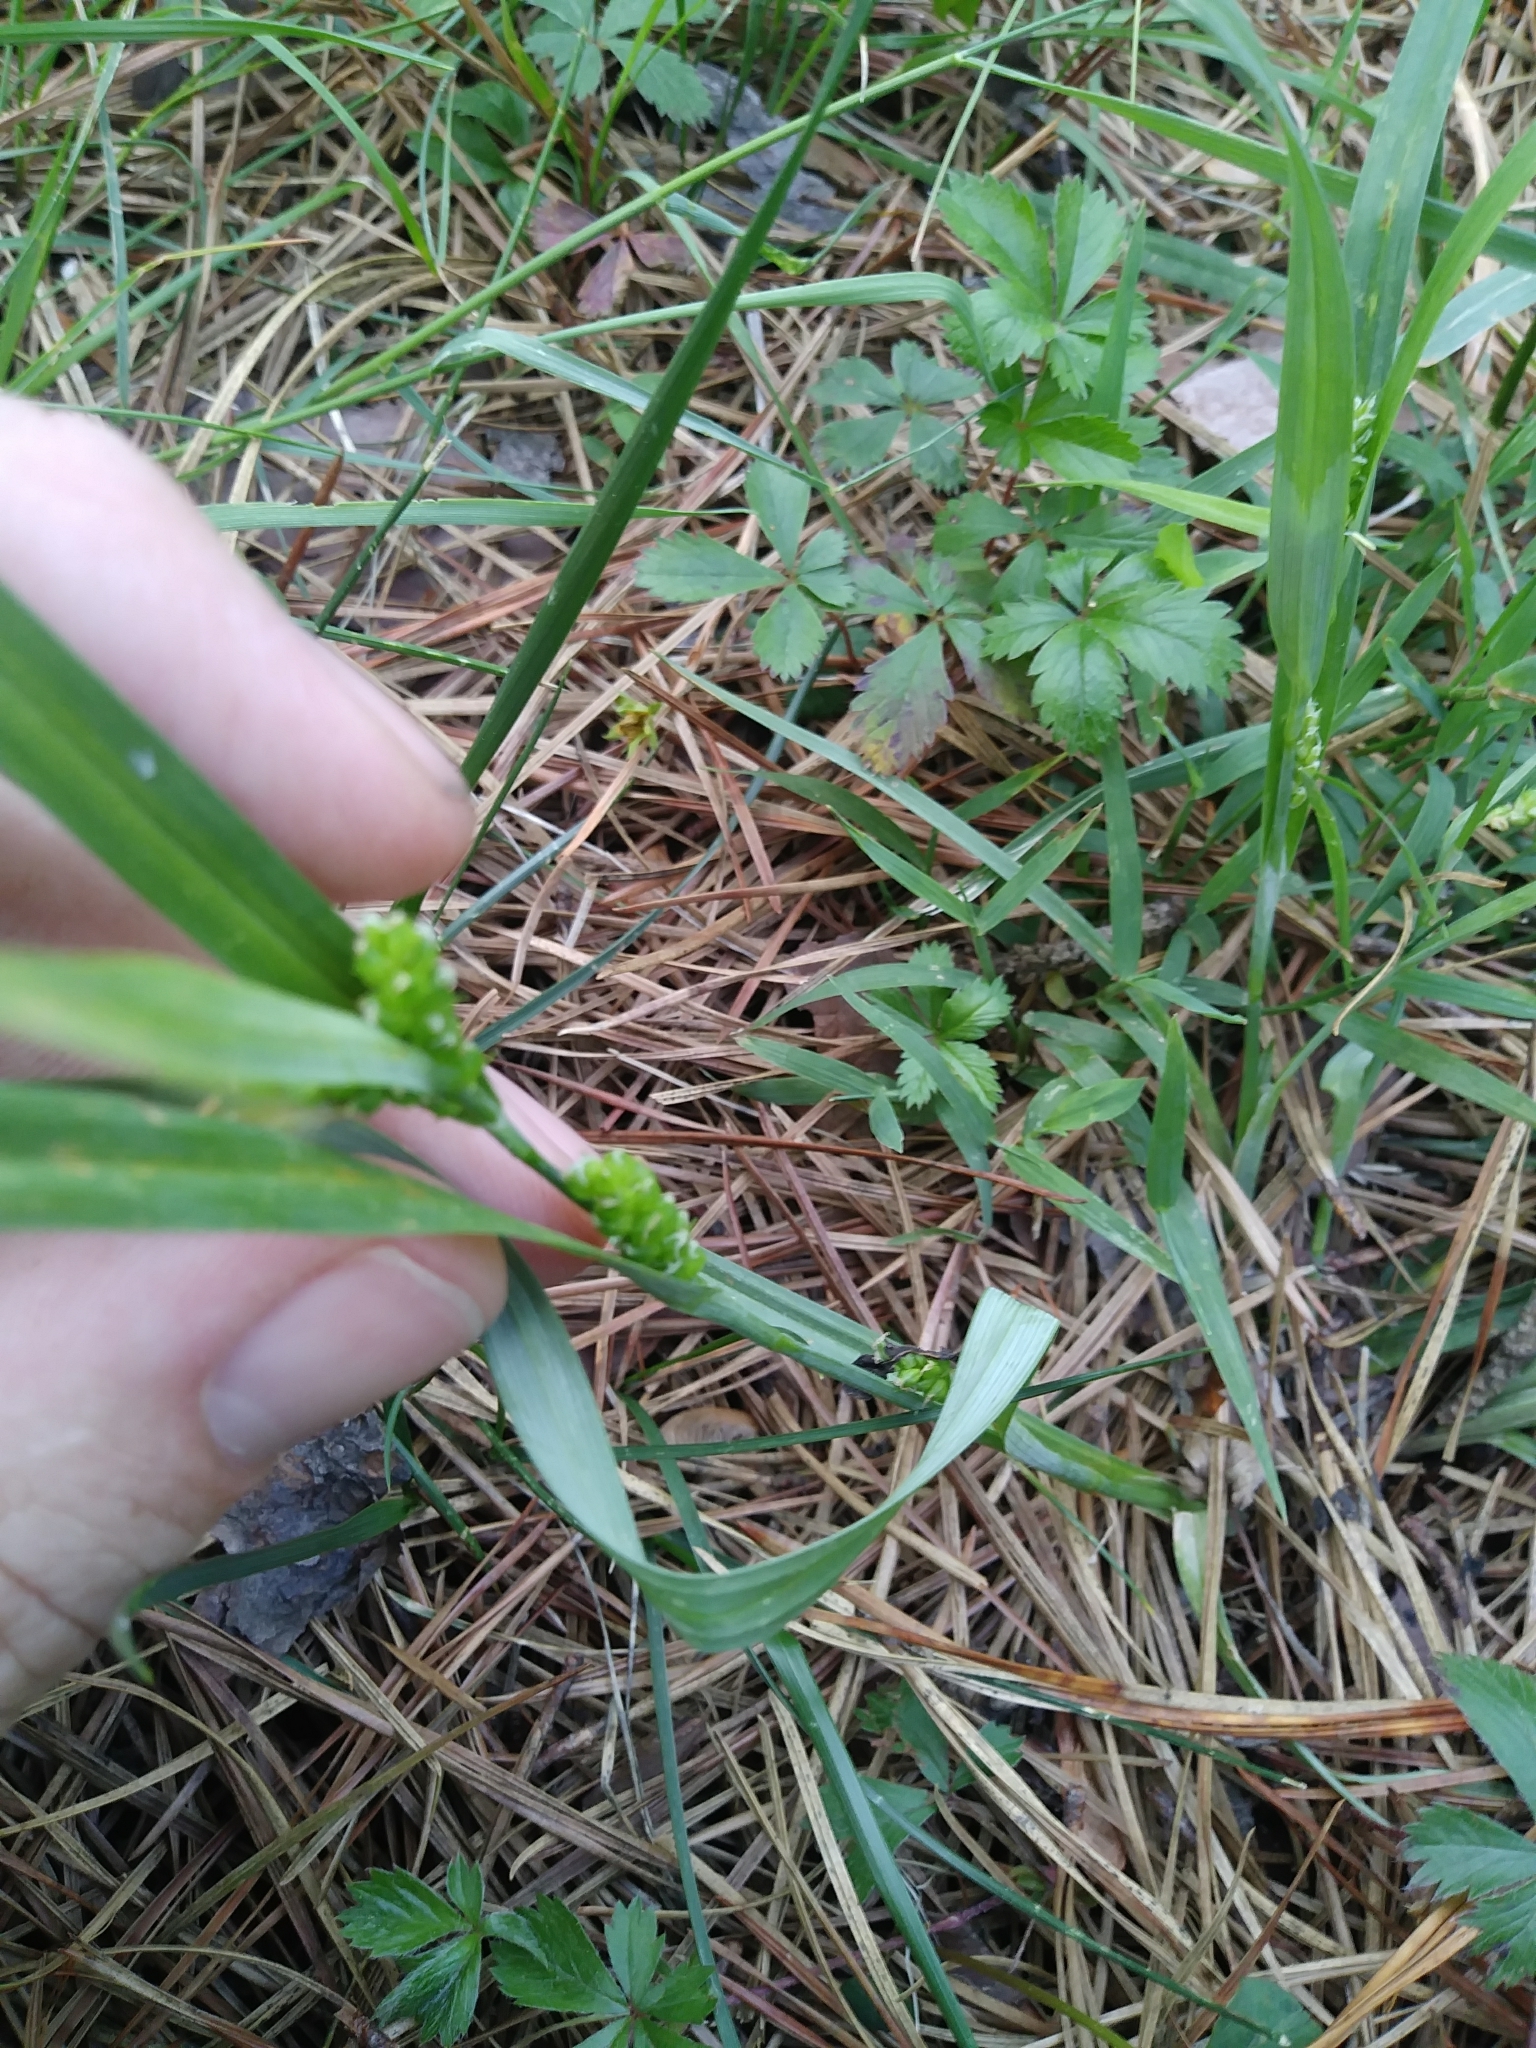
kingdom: Plantae
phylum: Tracheophyta
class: Liliopsida
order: Poales
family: Cyperaceae
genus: Carex
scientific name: Carex glaucodea
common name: Blue sedge
